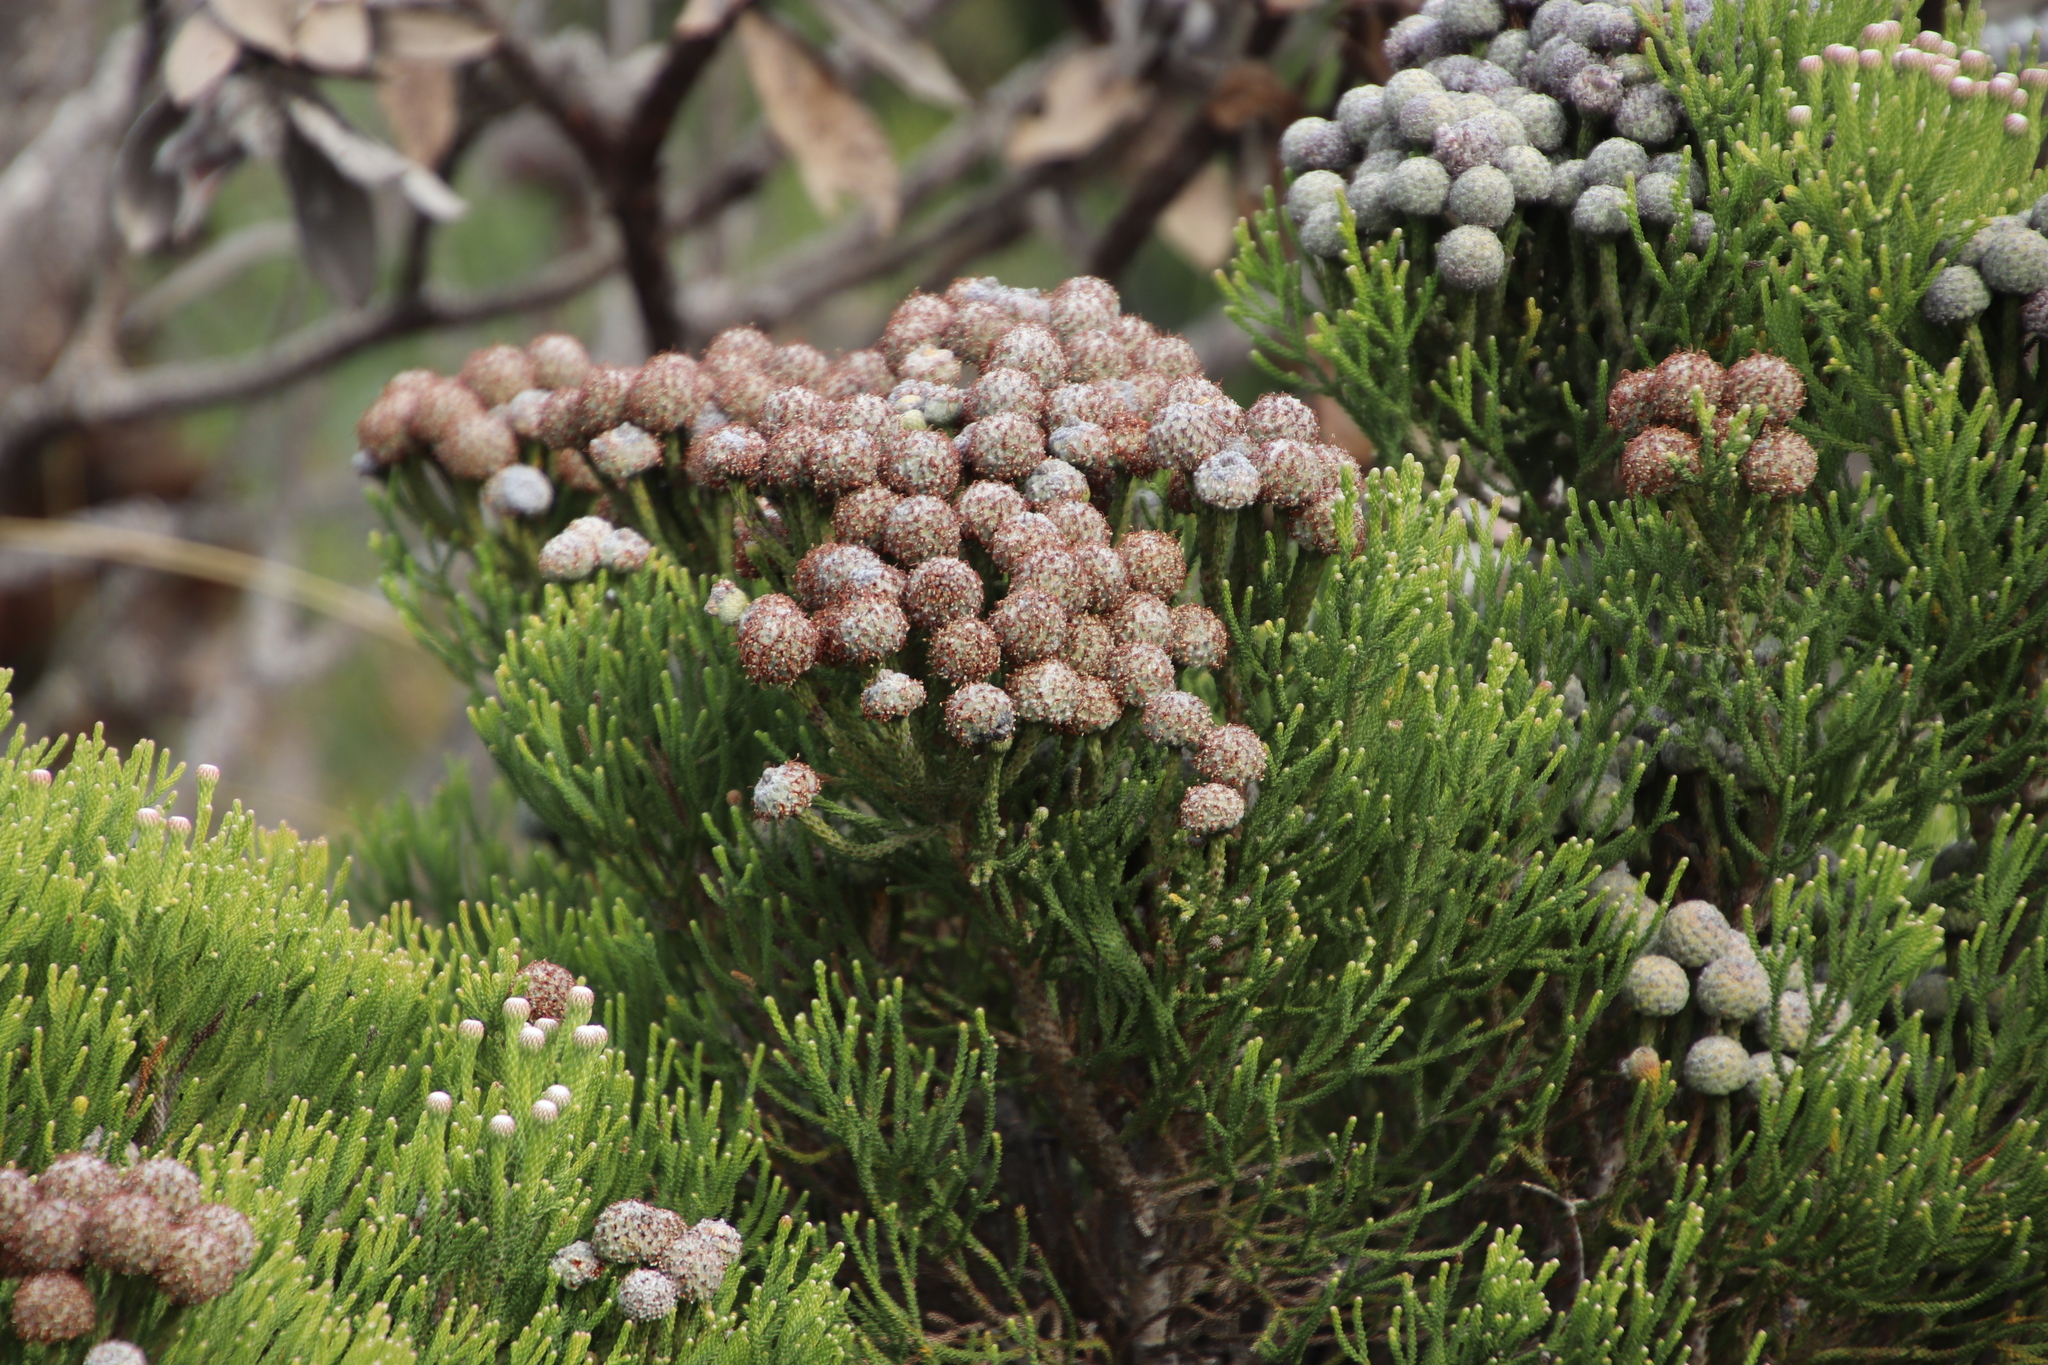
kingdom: Plantae
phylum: Tracheophyta
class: Magnoliopsida
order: Bruniales
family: Bruniaceae
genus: Brunia
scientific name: Brunia noduliflora
